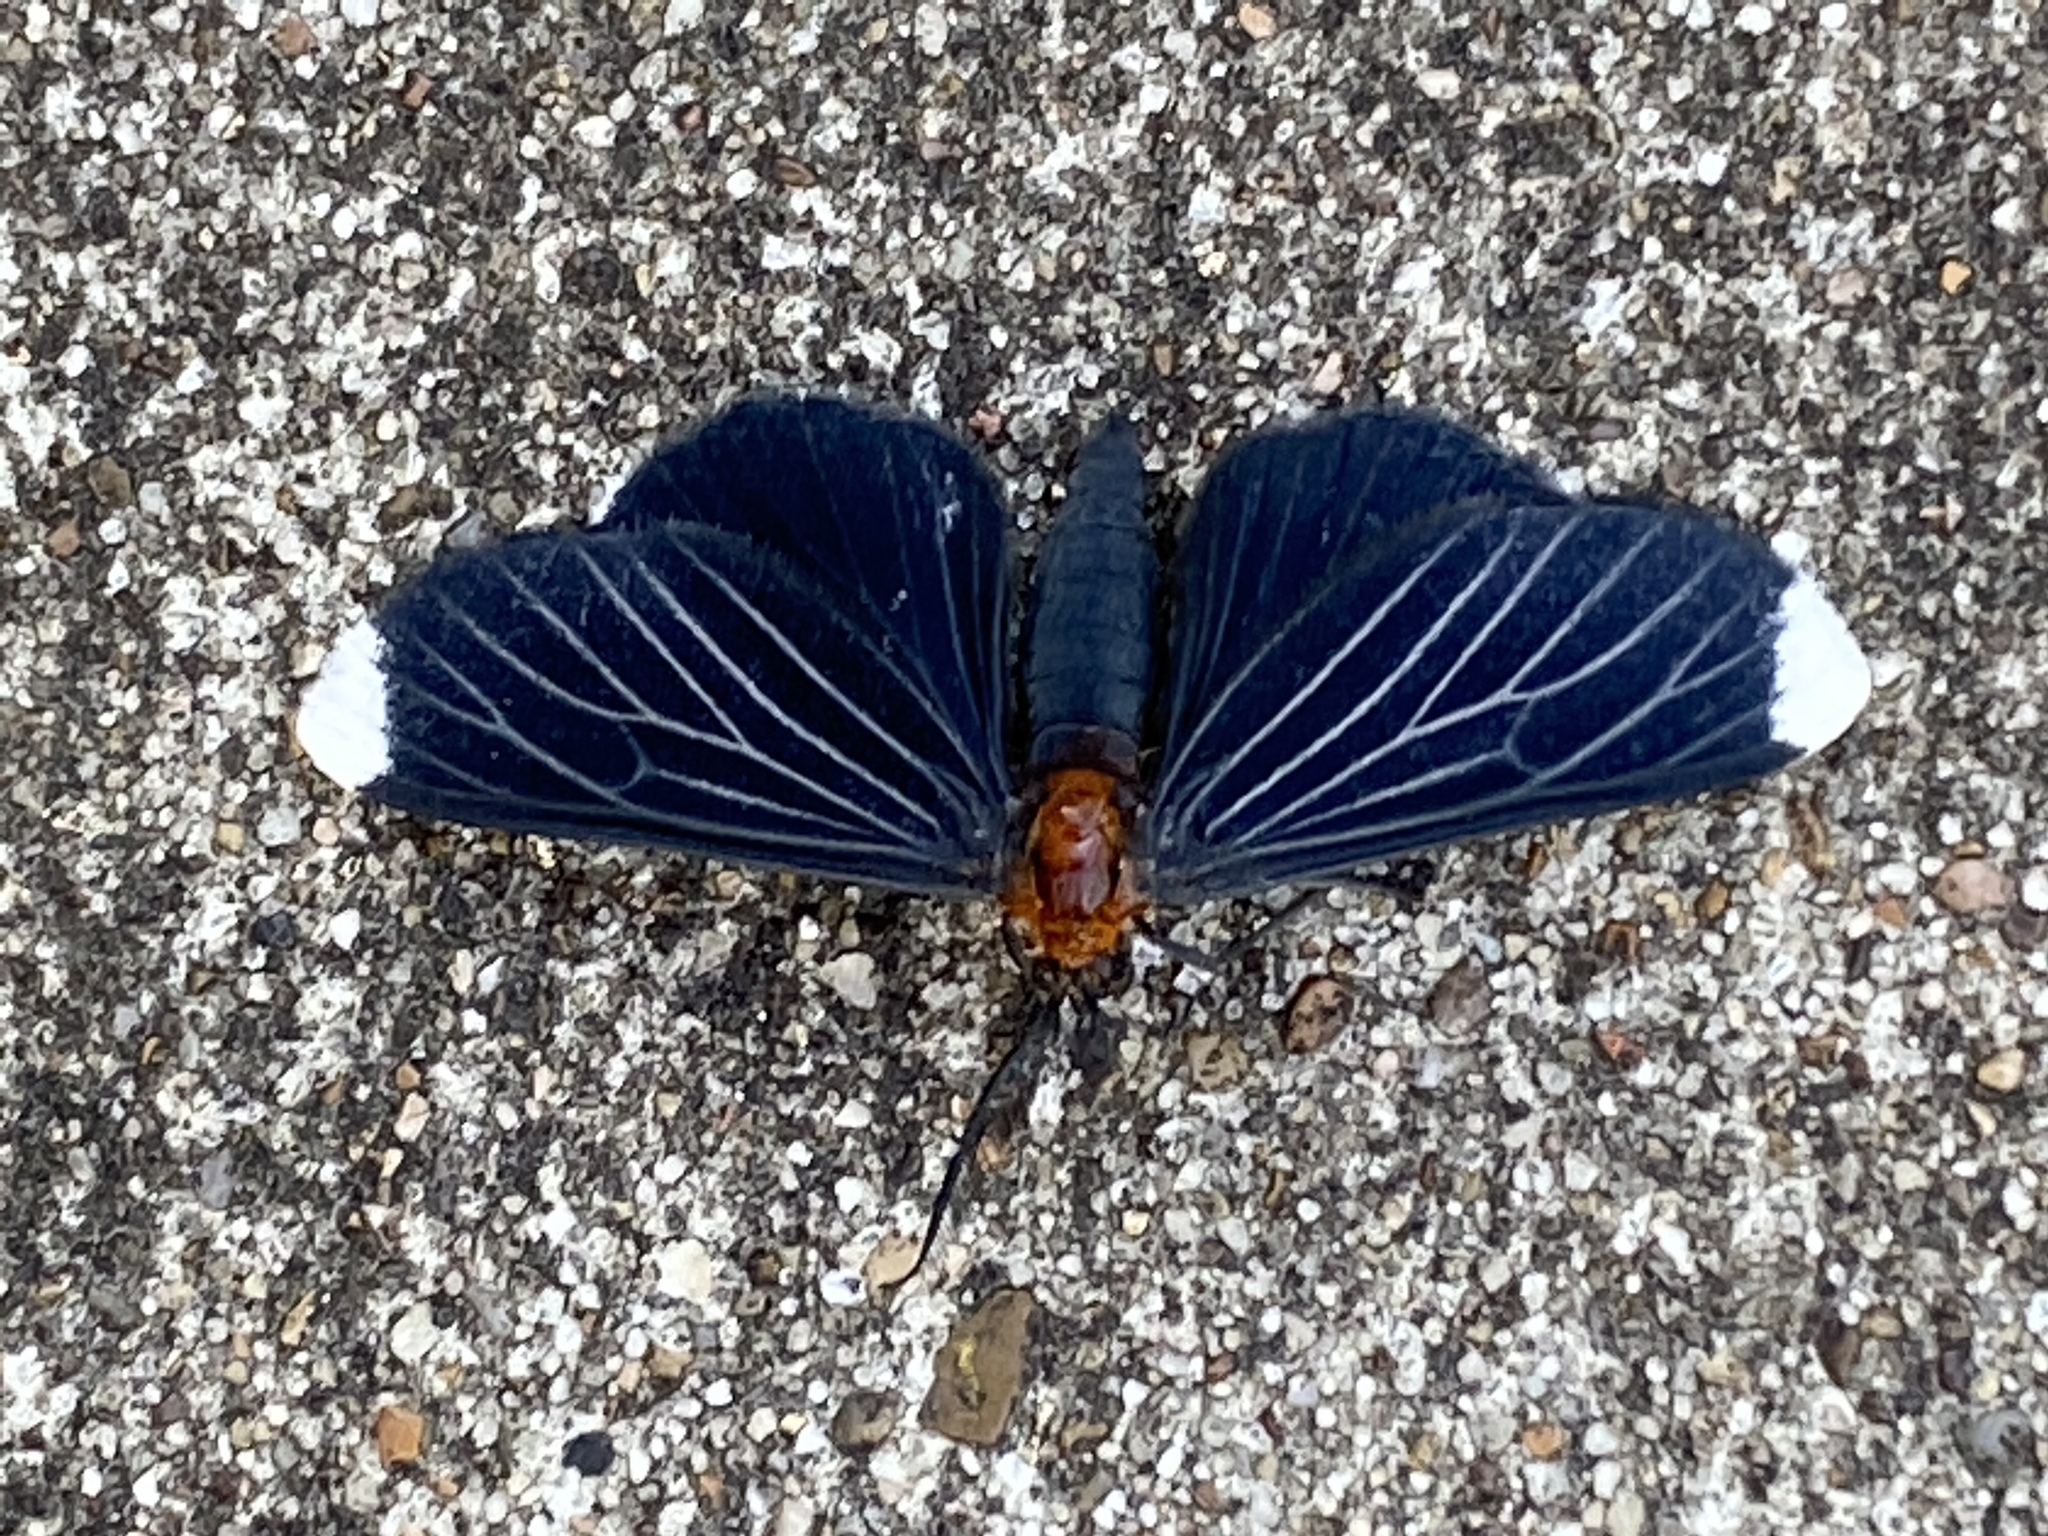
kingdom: Animalia
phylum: Arthropoda
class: Insecta
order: Lepidoptera
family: Geometridae
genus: Melanchroia
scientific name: Melanchroia chephise
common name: White-tipped black
